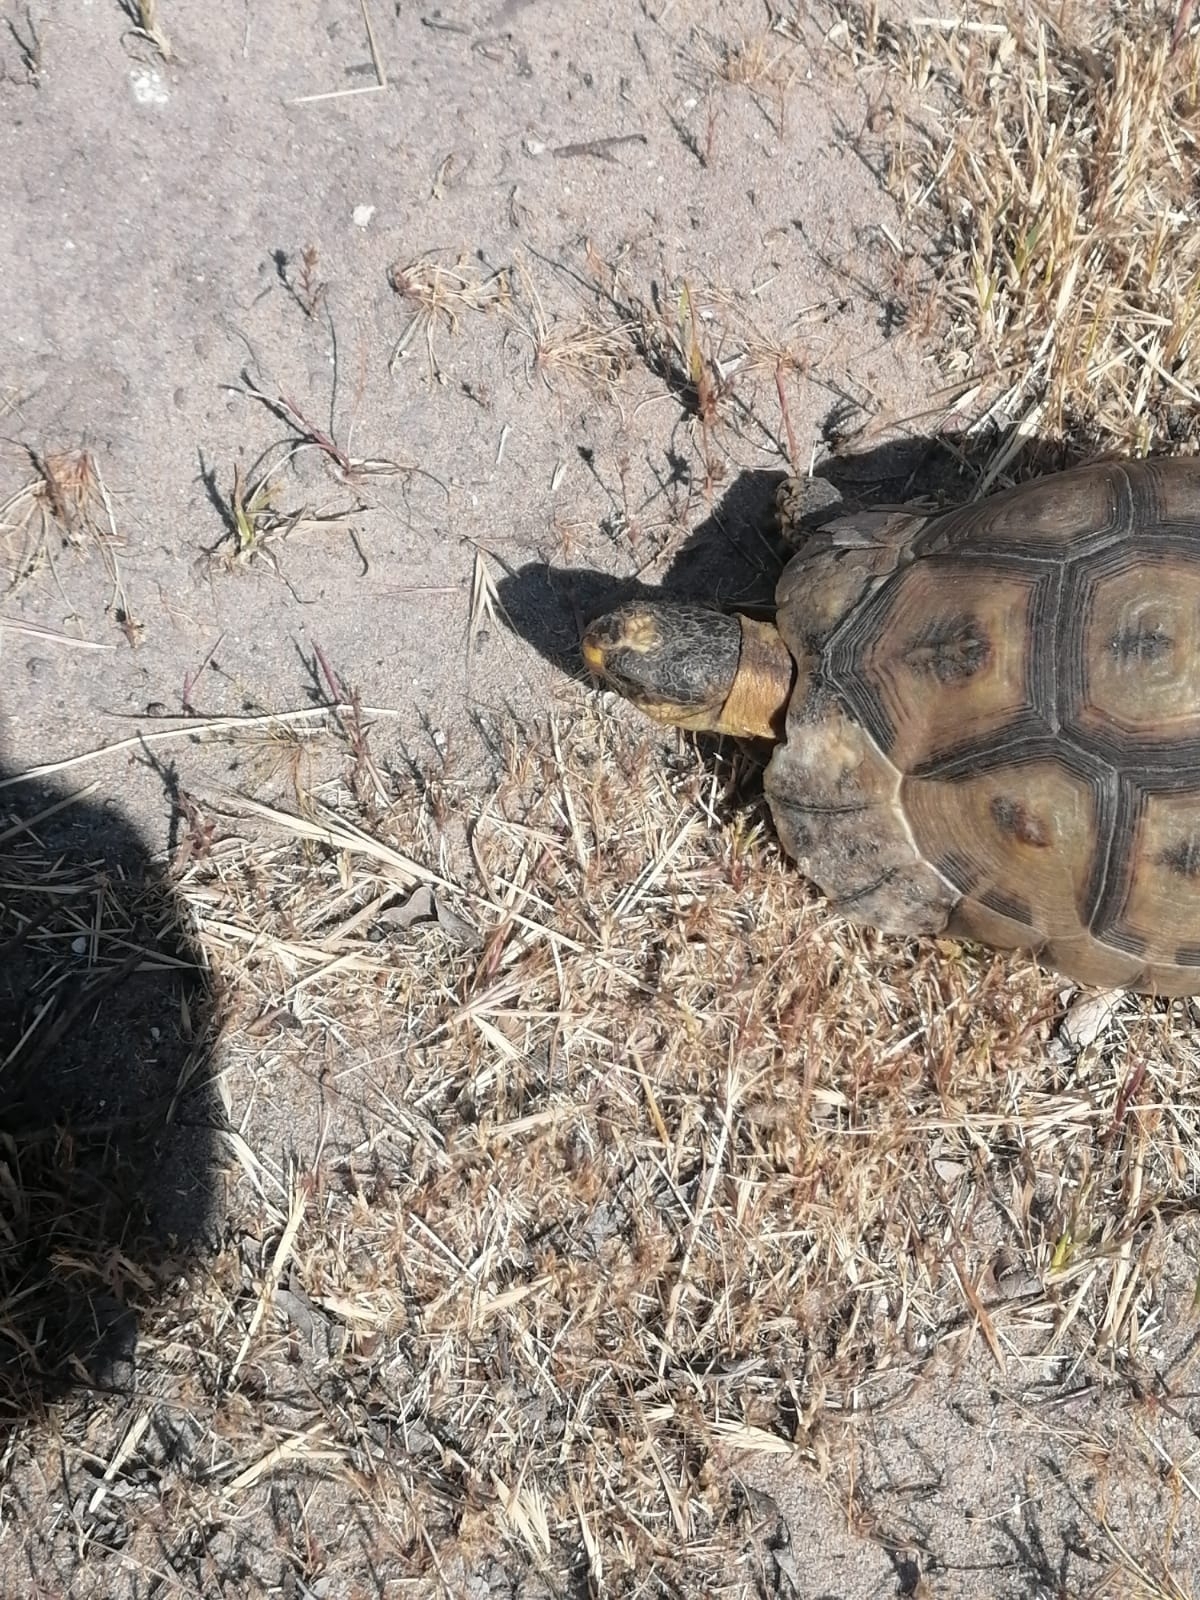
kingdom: Animalia
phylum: Chordata
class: Testudines
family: Testudinidae
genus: Chersina
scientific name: Chersina angulata
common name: South african bowsprit tortoise
